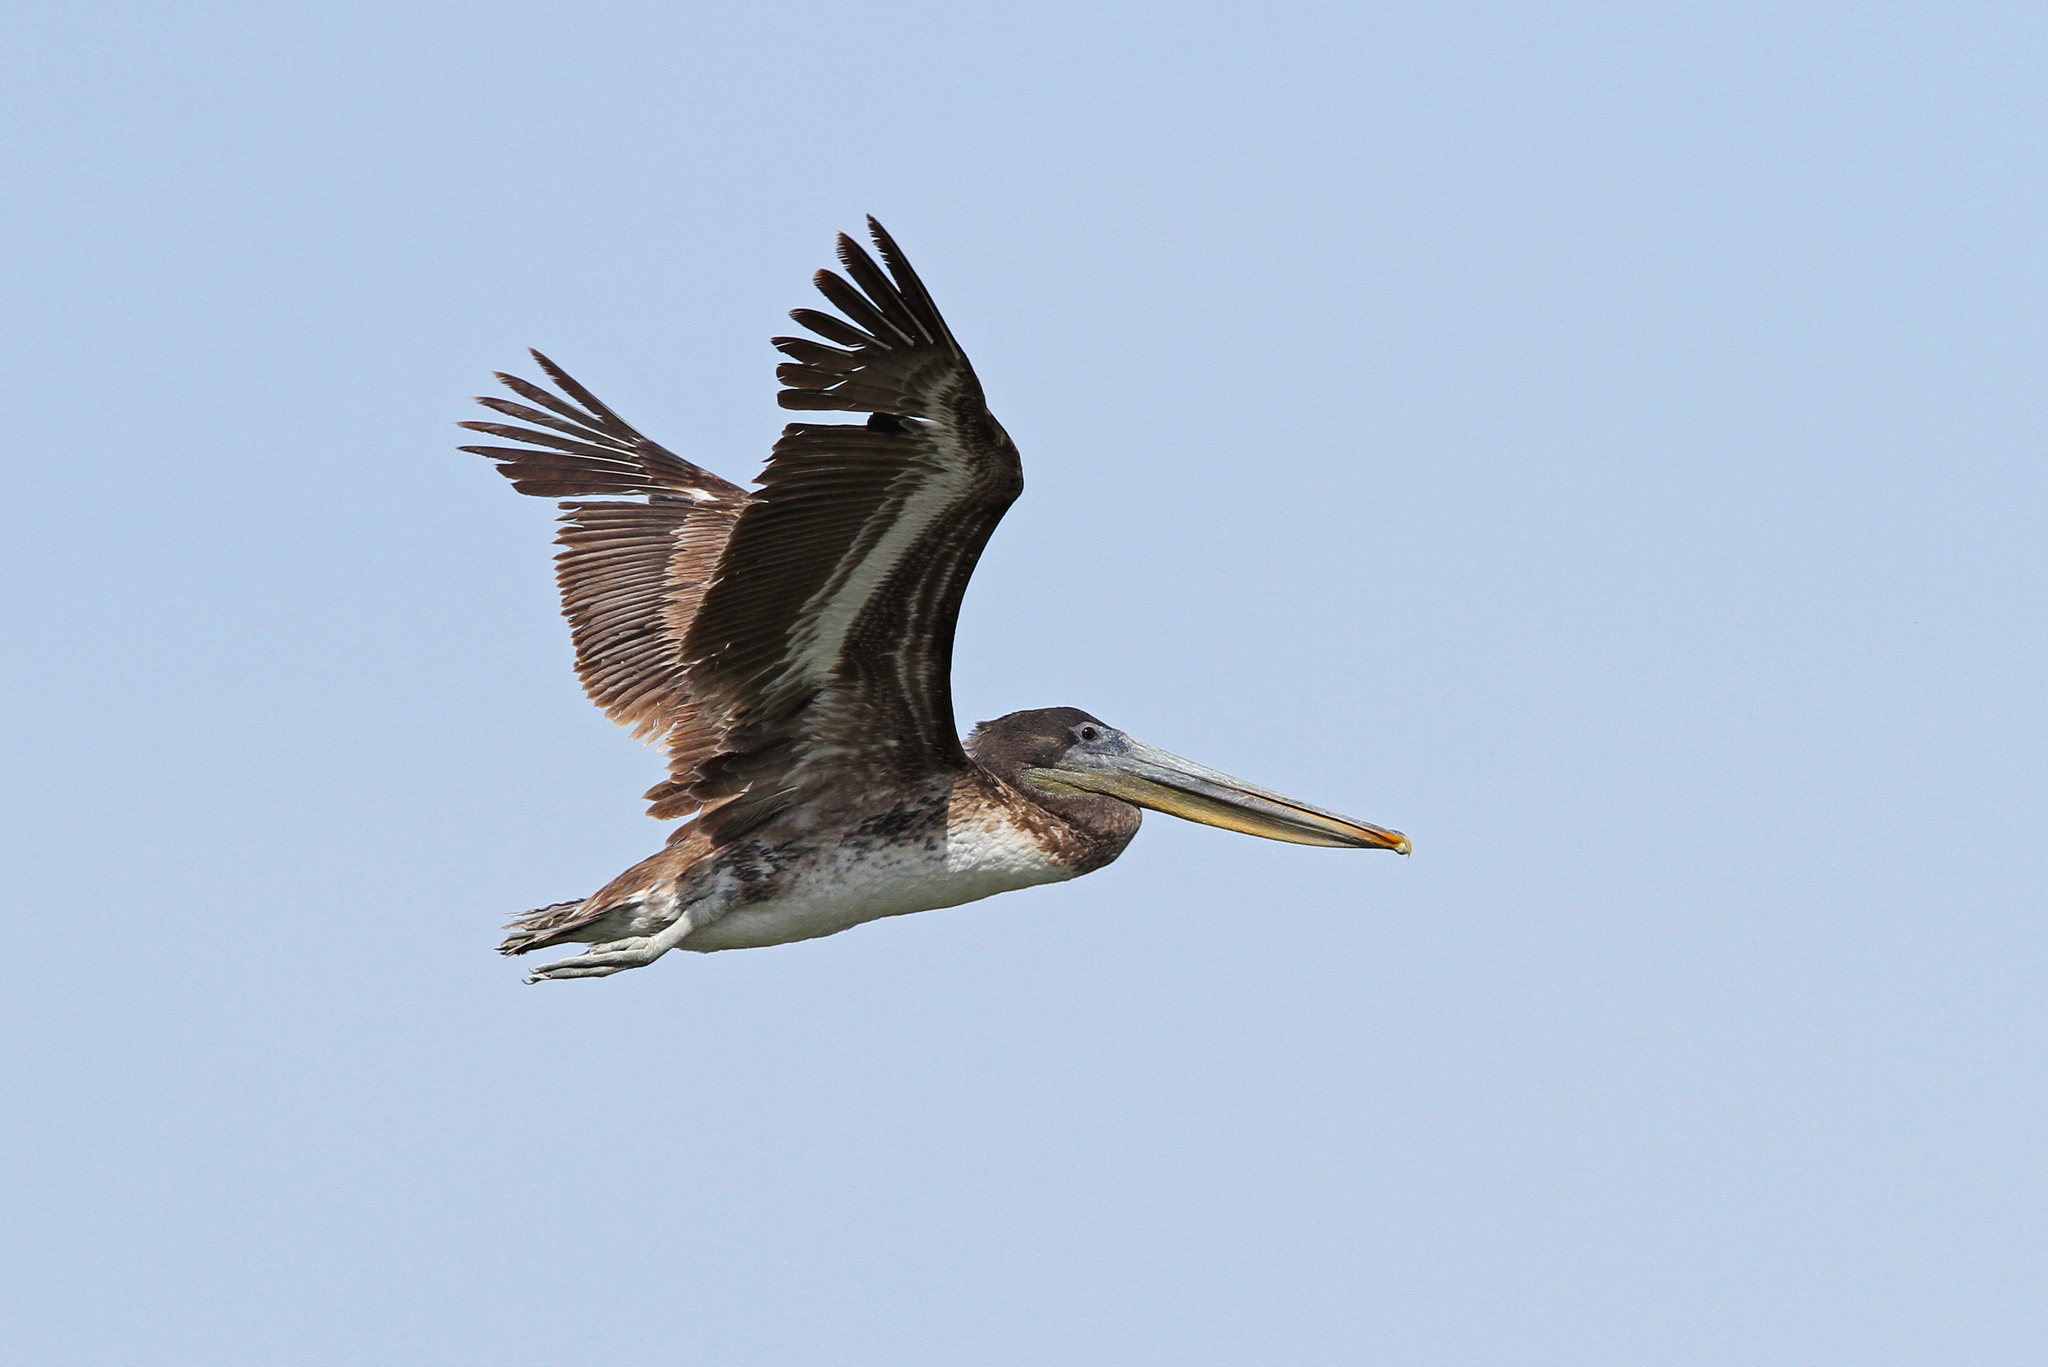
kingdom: Animalia
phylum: Chordata
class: Aves
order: Pelecaniformes
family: Pelecanidae
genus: Pelecanus
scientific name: Pelecanus occidentalis
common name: Brown pelican
